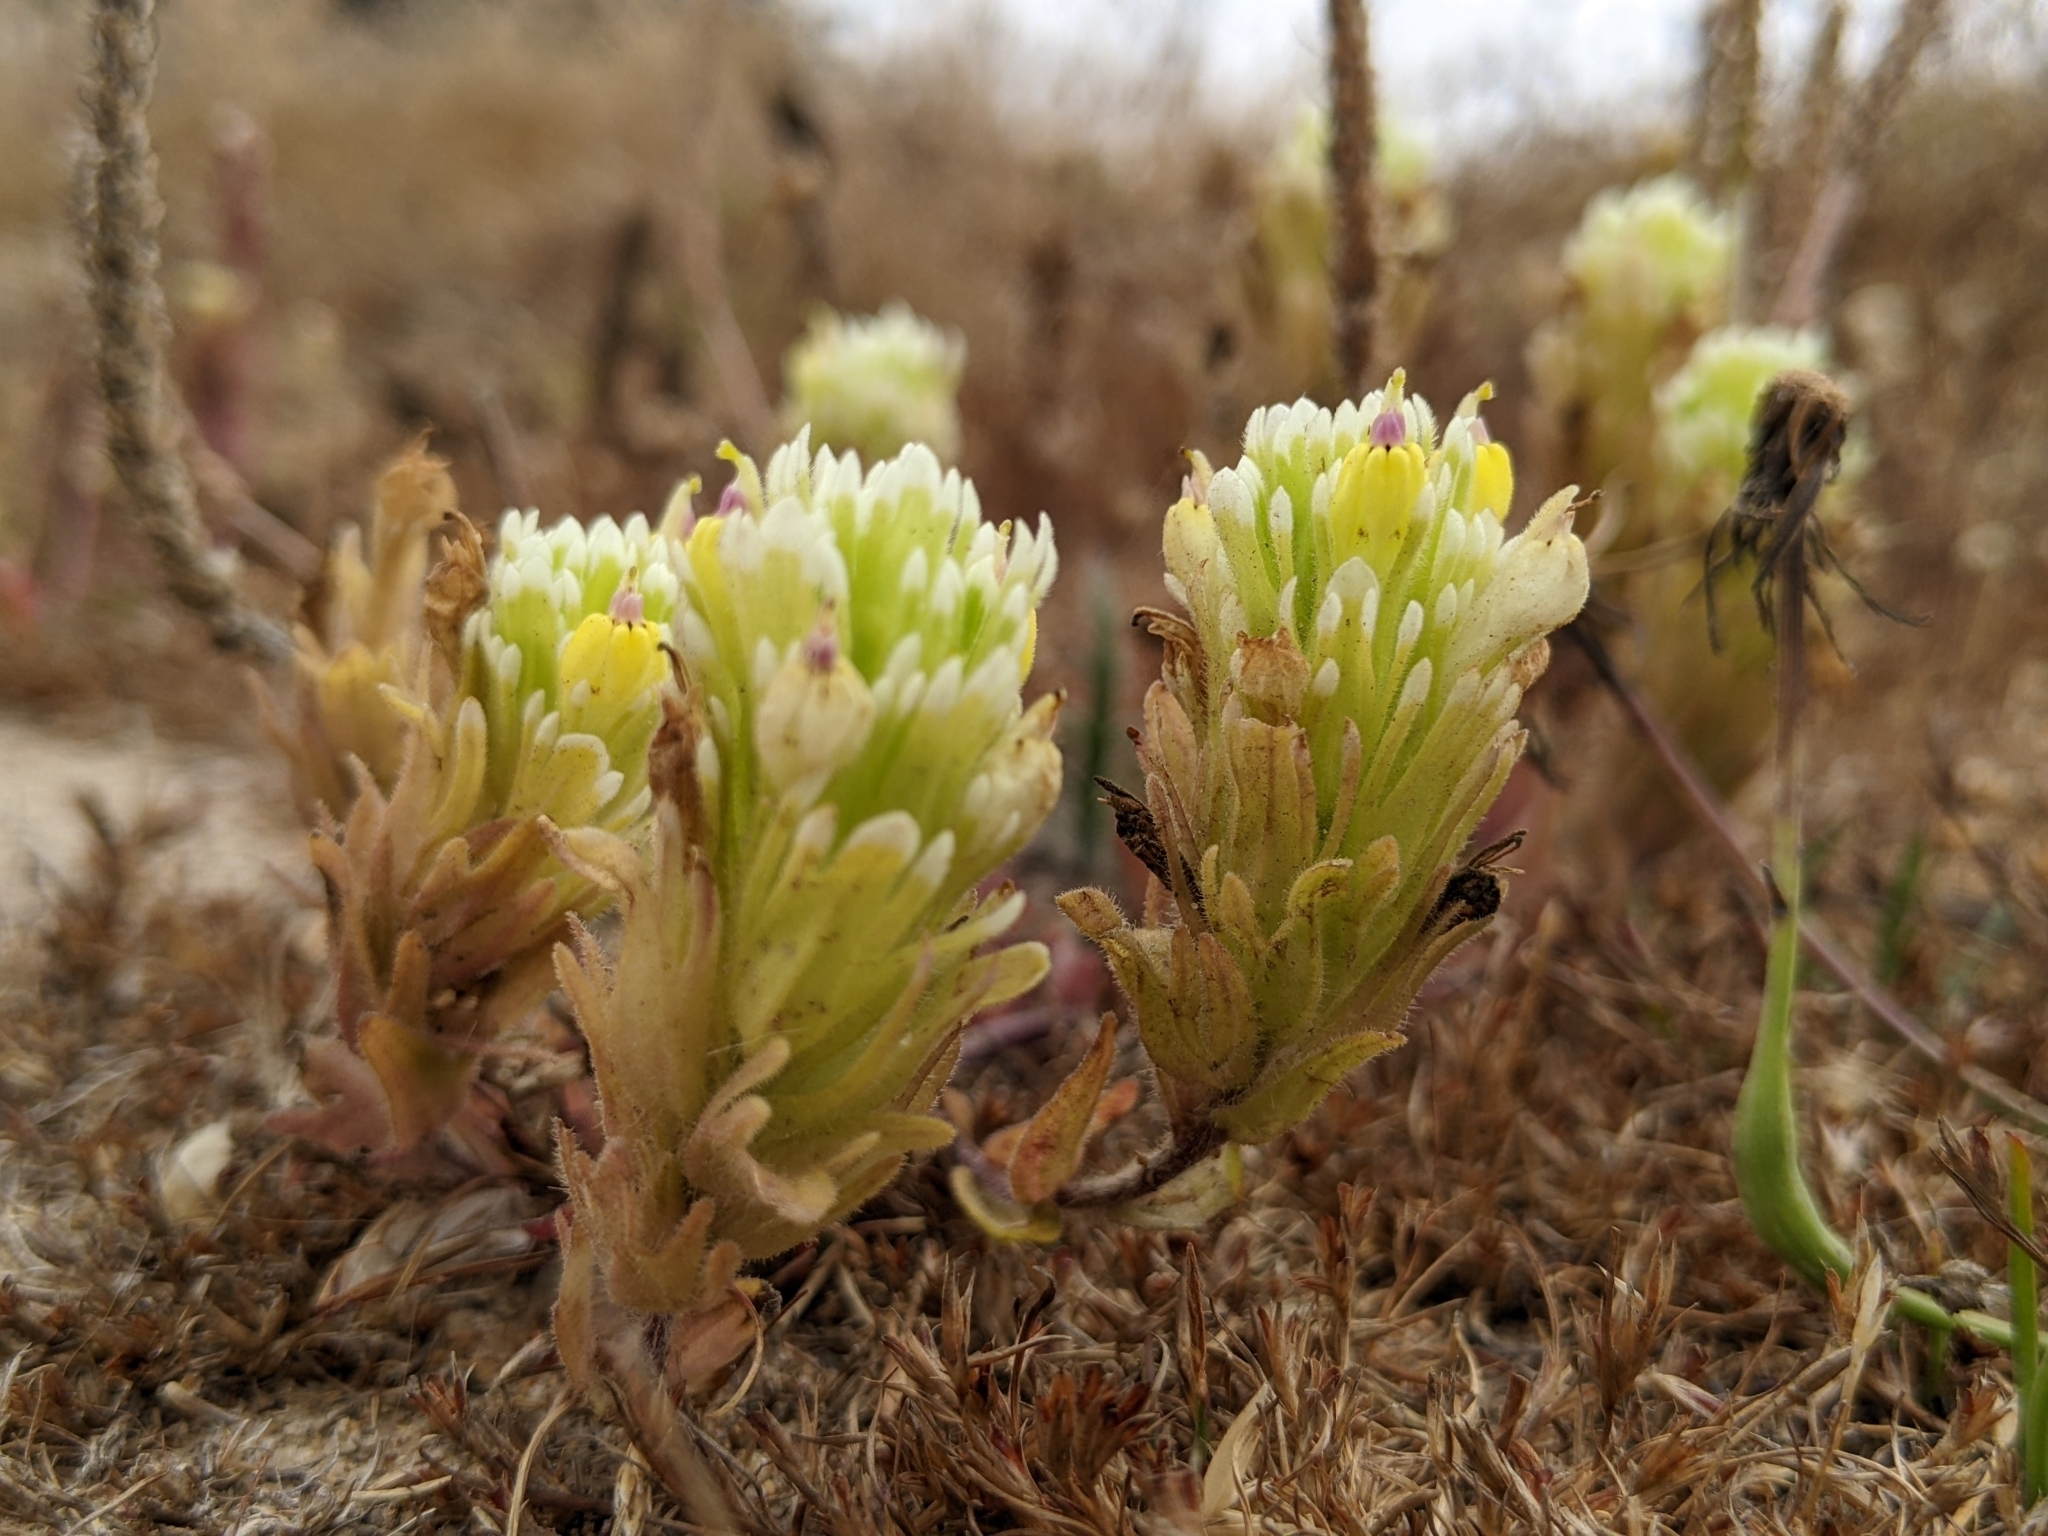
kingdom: Plantae
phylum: Tracheophyta
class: Magnoliopsida
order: Lamiales
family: Orobanchaceae
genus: Castilleja
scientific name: Castilleja ambigua
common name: Johnny-nip
